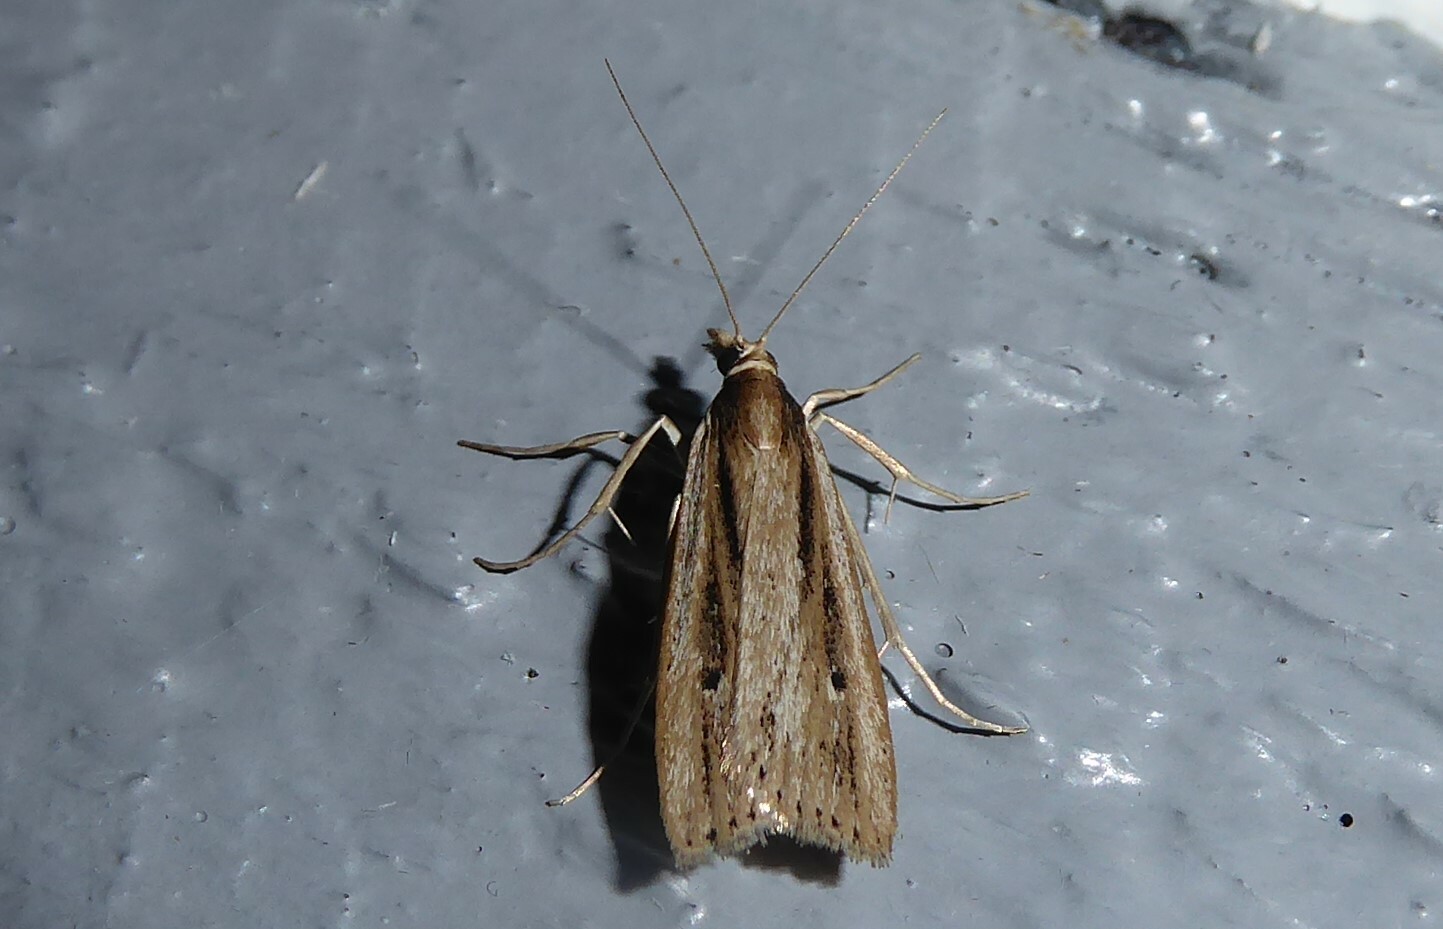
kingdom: Animalia
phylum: Arthropoda
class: Insecta
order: Lepidoptera
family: Crambidae
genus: Eudonia
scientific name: Eudonia sabulosella
